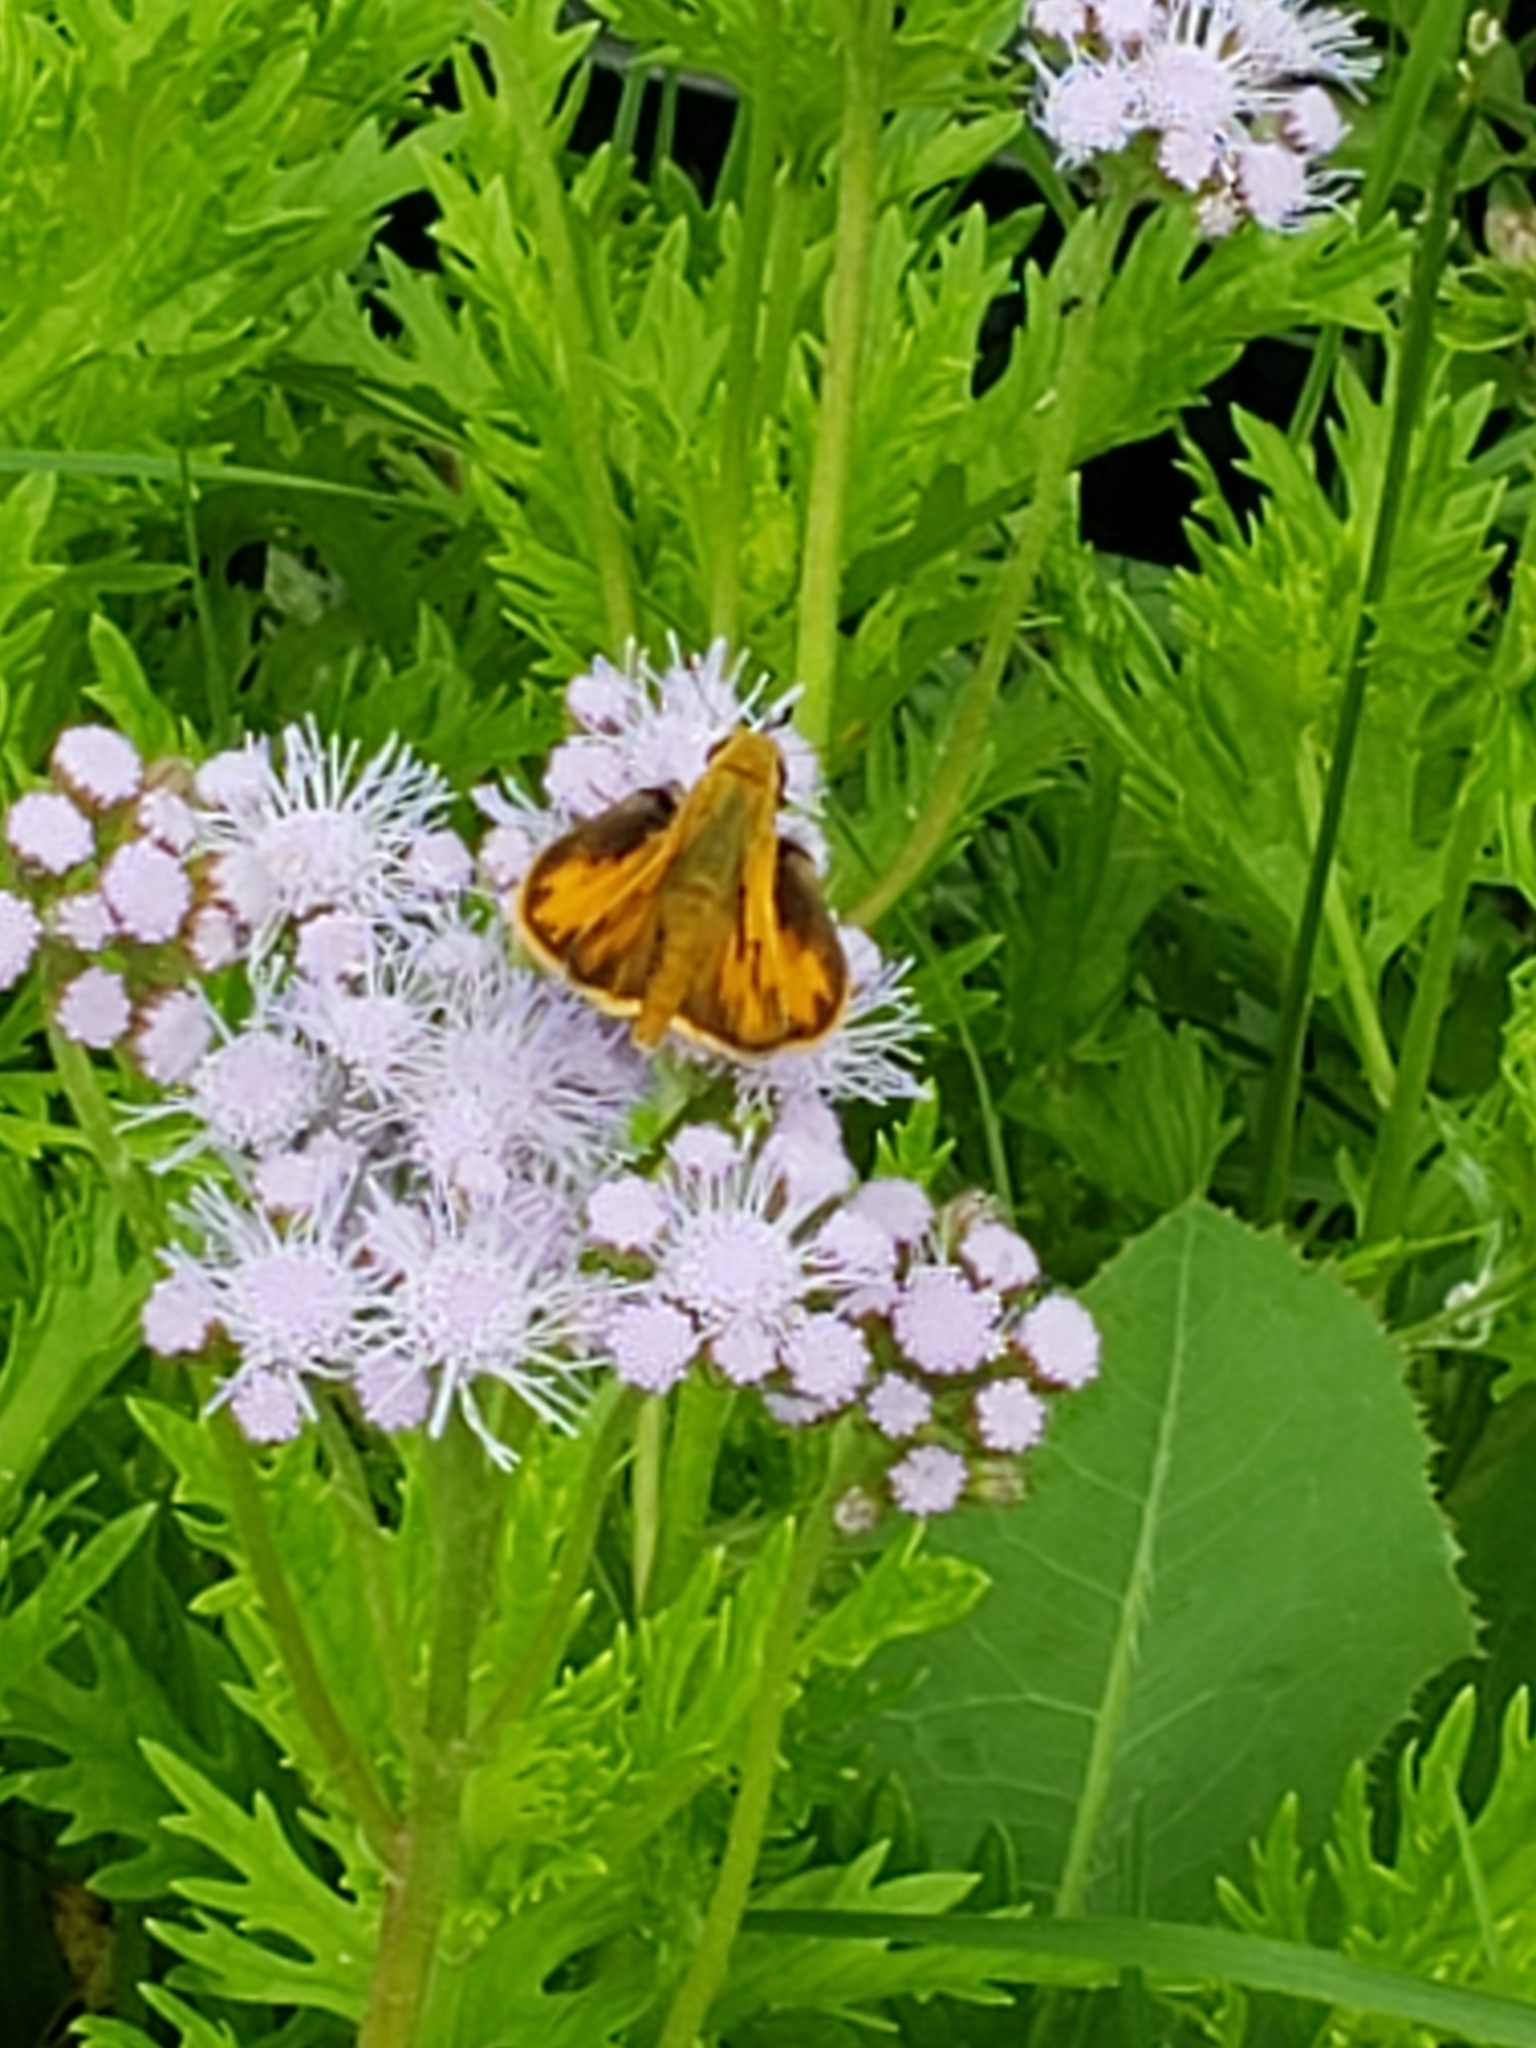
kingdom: Animalia
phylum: Arthropoda
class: Insecta
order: Lepidoptera
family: Hesperiidae
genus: Hylephila
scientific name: Hylephila phyleus
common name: Fiery skipper
